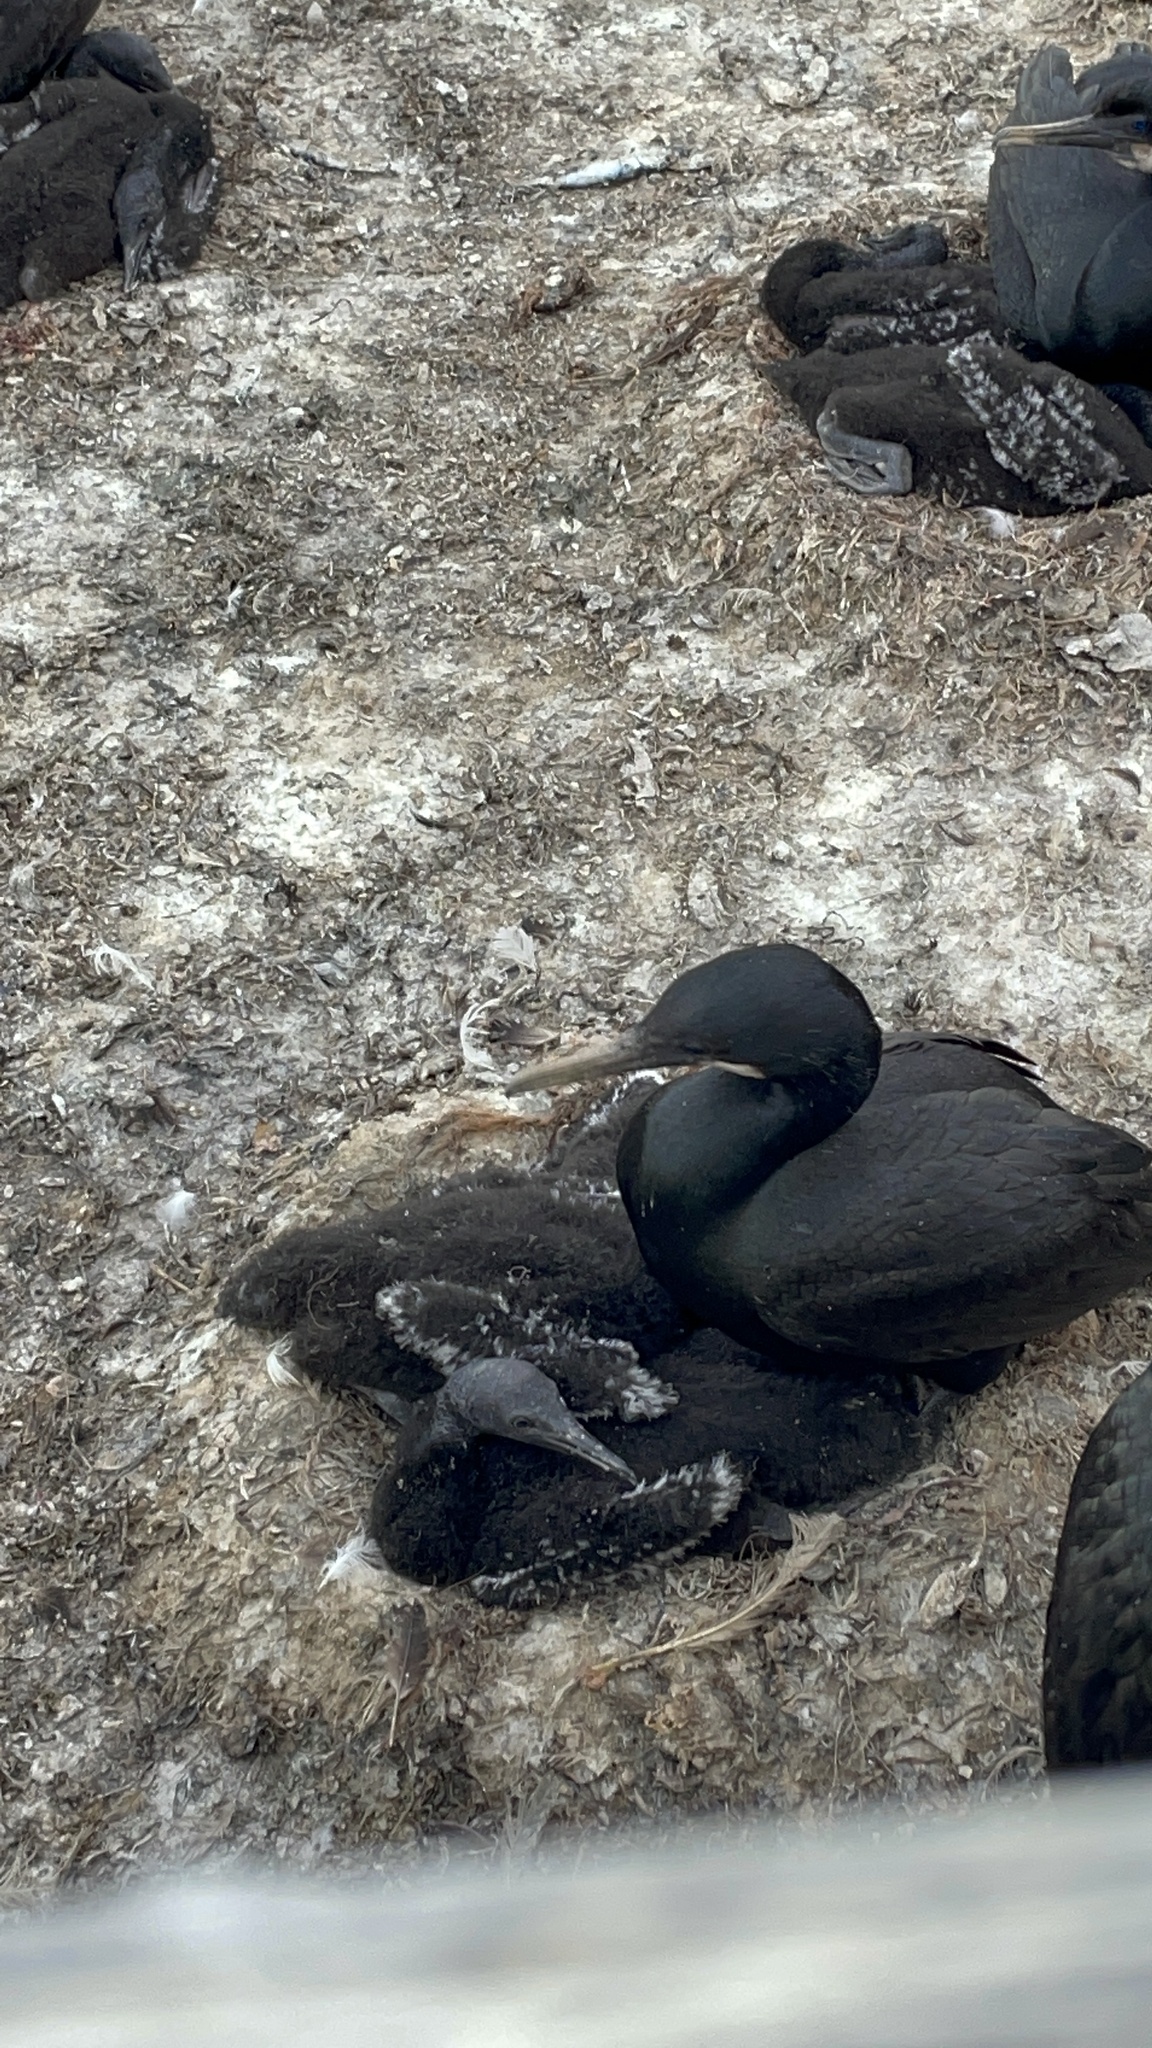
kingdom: Animalia
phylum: Chordata
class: Aves
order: Suliformes
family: Phalacrocoracidae
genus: Urile
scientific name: Urile penicillatus
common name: Brandt's cormorant
